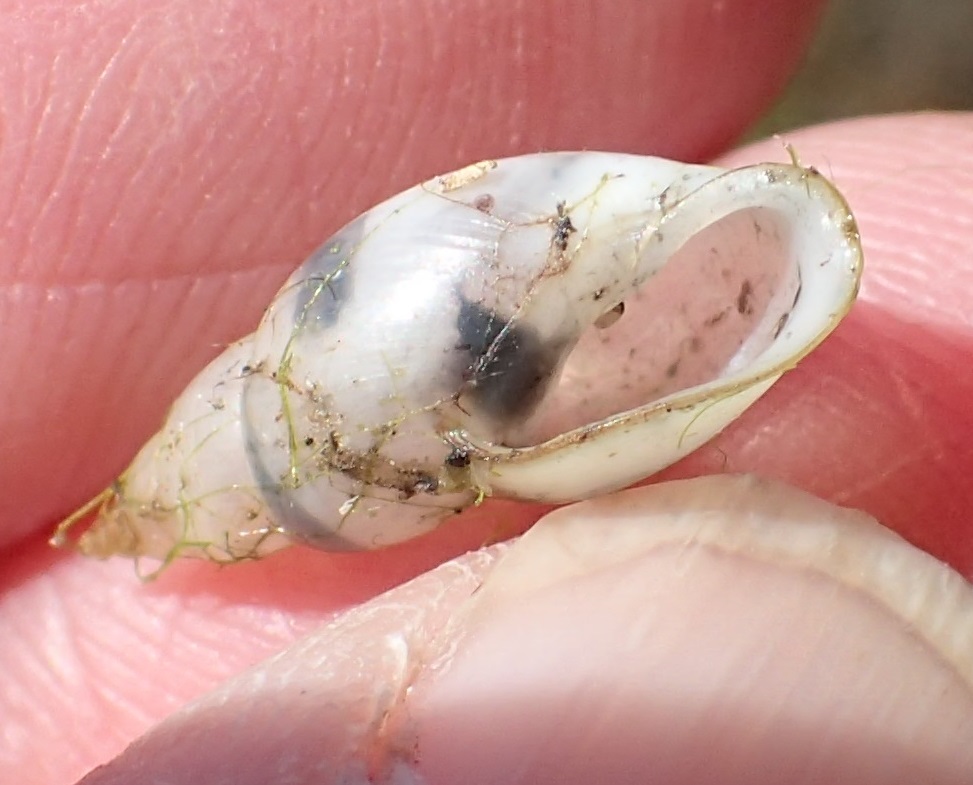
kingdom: Animalia
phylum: Mollusca
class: Gastropoda
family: Planorbidae
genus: Glyptophysa
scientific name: Glyptophysa novaehollandica
